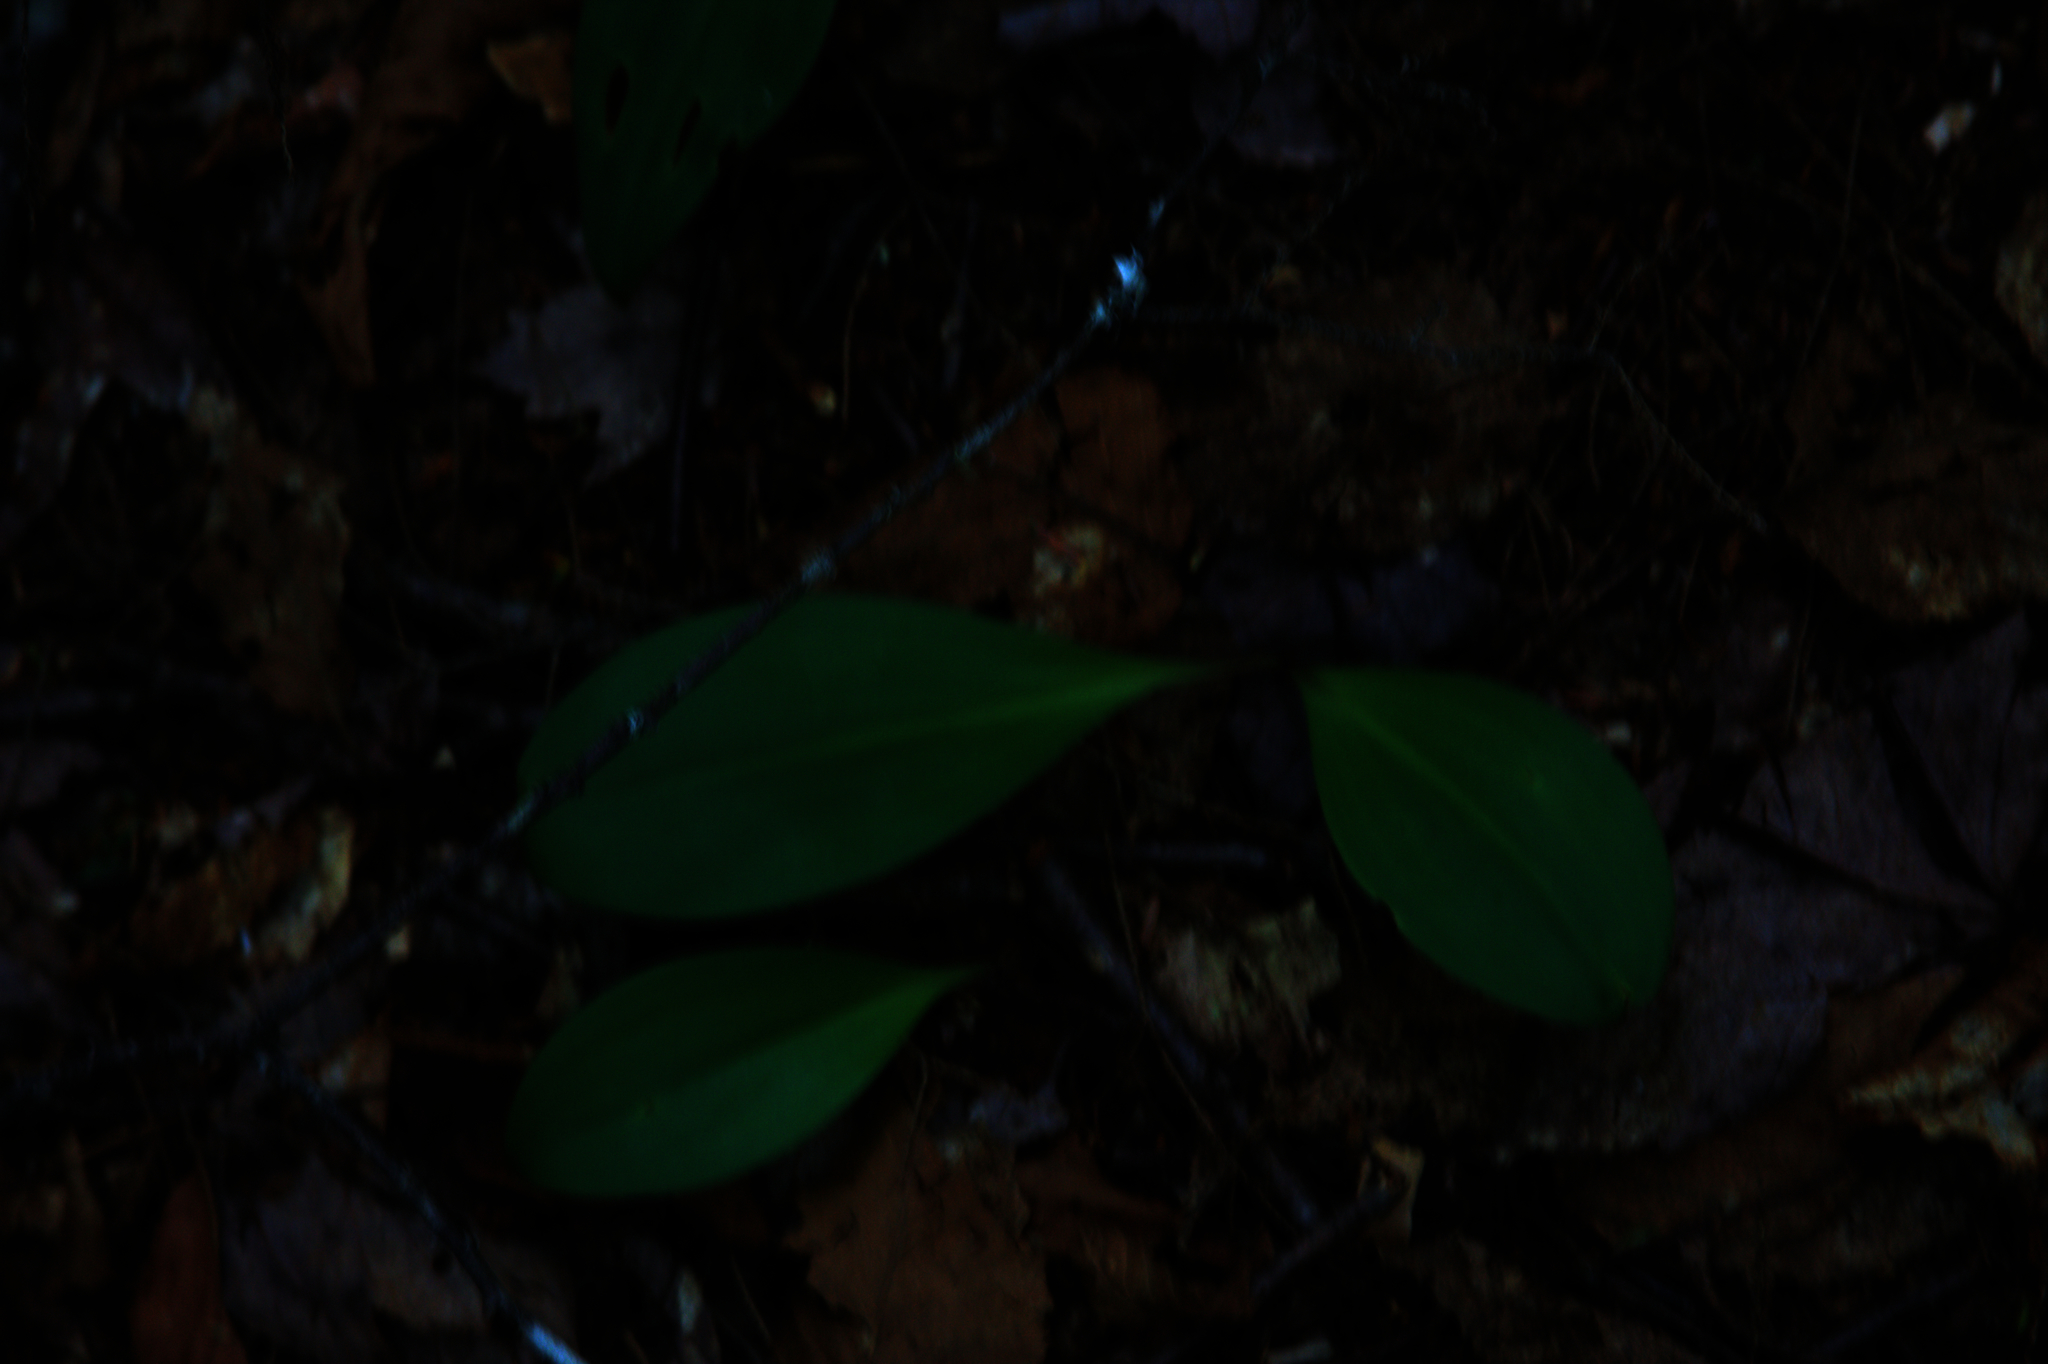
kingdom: Plantae
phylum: Tracheophyta
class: Liliopsida
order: Liliales
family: Liliaceae
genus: Clintonia
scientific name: Clintonia borealis
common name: Yellow clintonia
